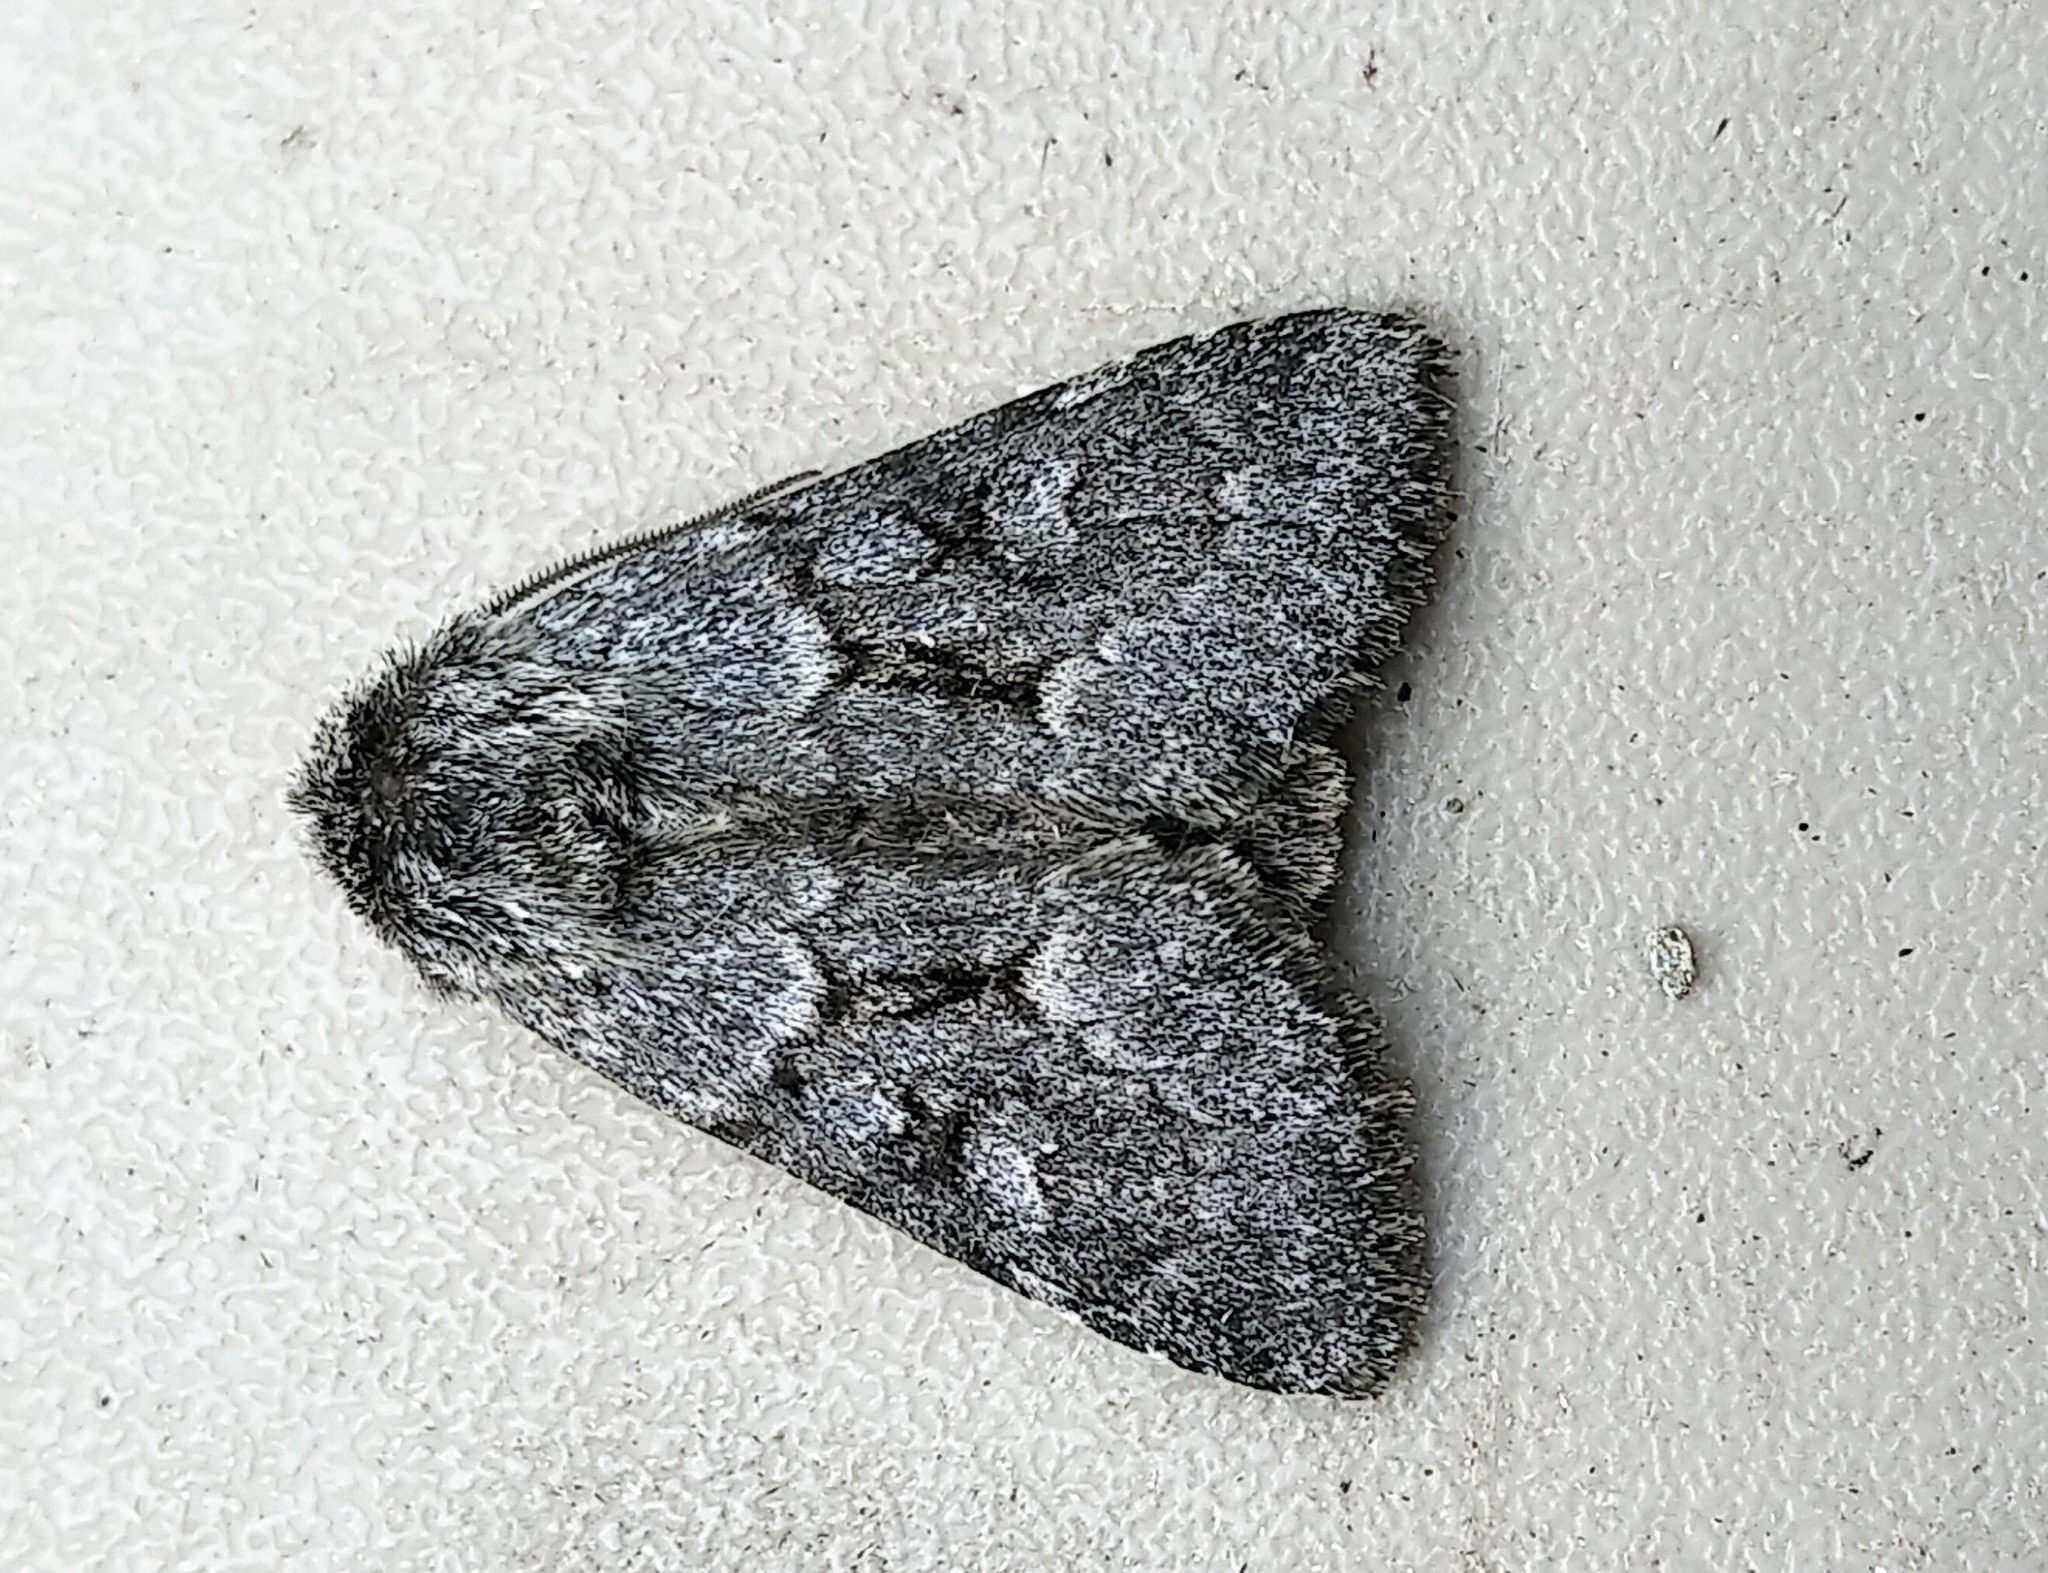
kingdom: Animalia
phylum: Arthropoda
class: Insecta
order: Lepidoptera
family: Noctuidae
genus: Lasionycta
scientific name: Lasionycta fergusoni
